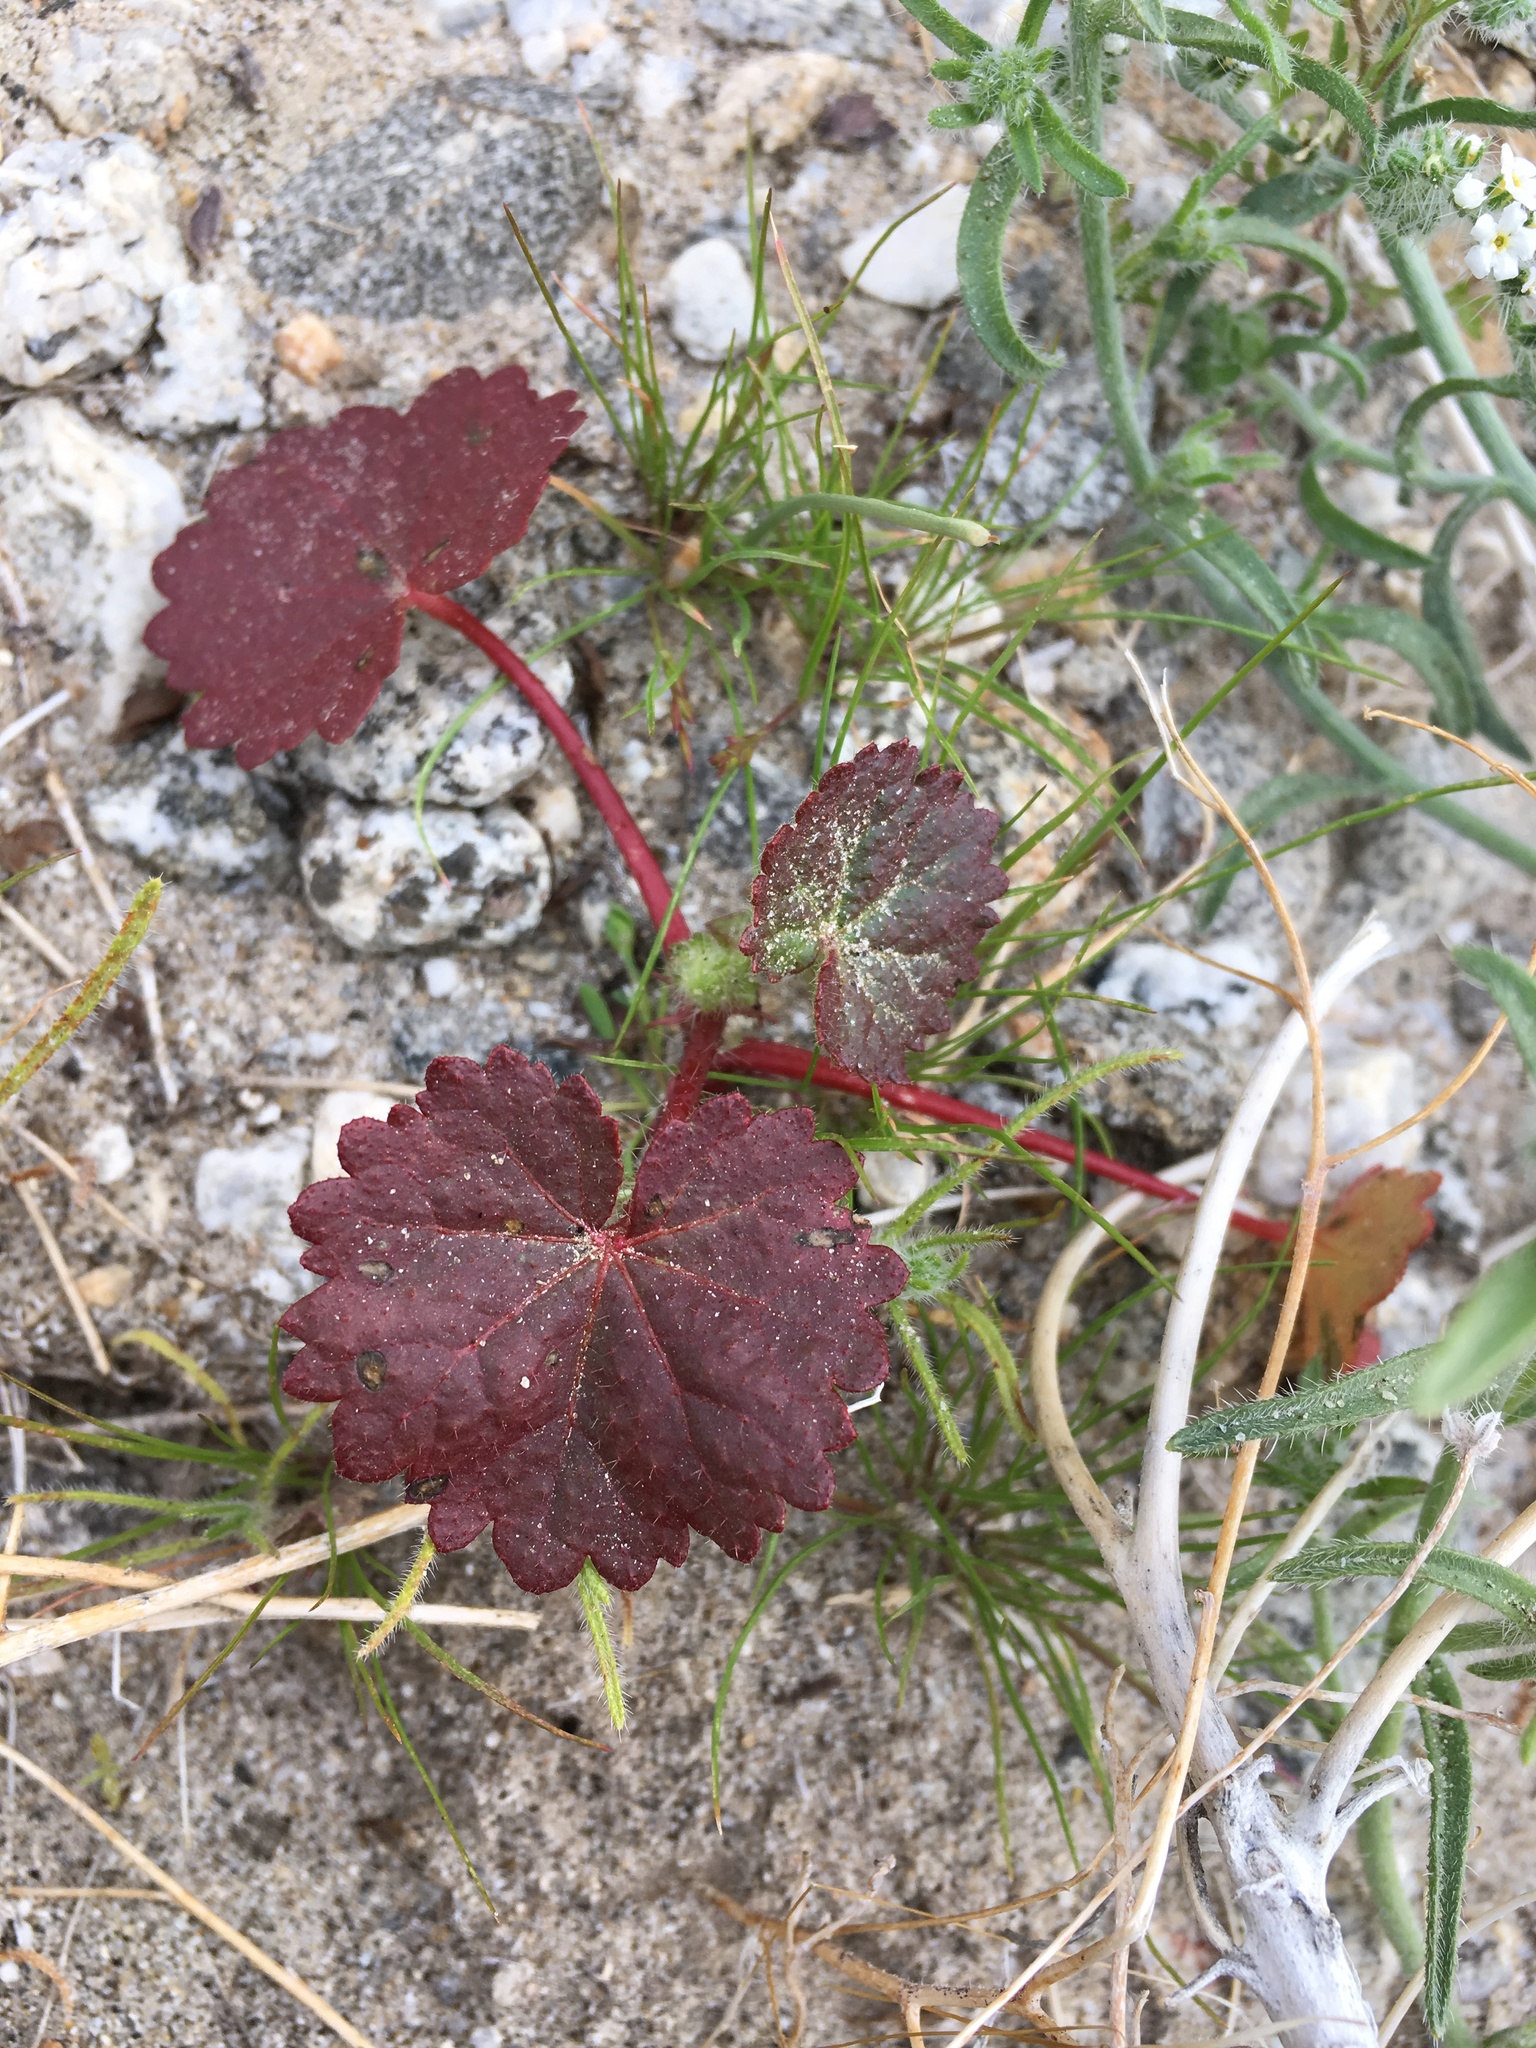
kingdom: Plantae
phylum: Tracheophyta
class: Magnoliopsida
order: Malvales
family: Malvaceae
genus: Eremalche
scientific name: Eremalche rotundifolia
